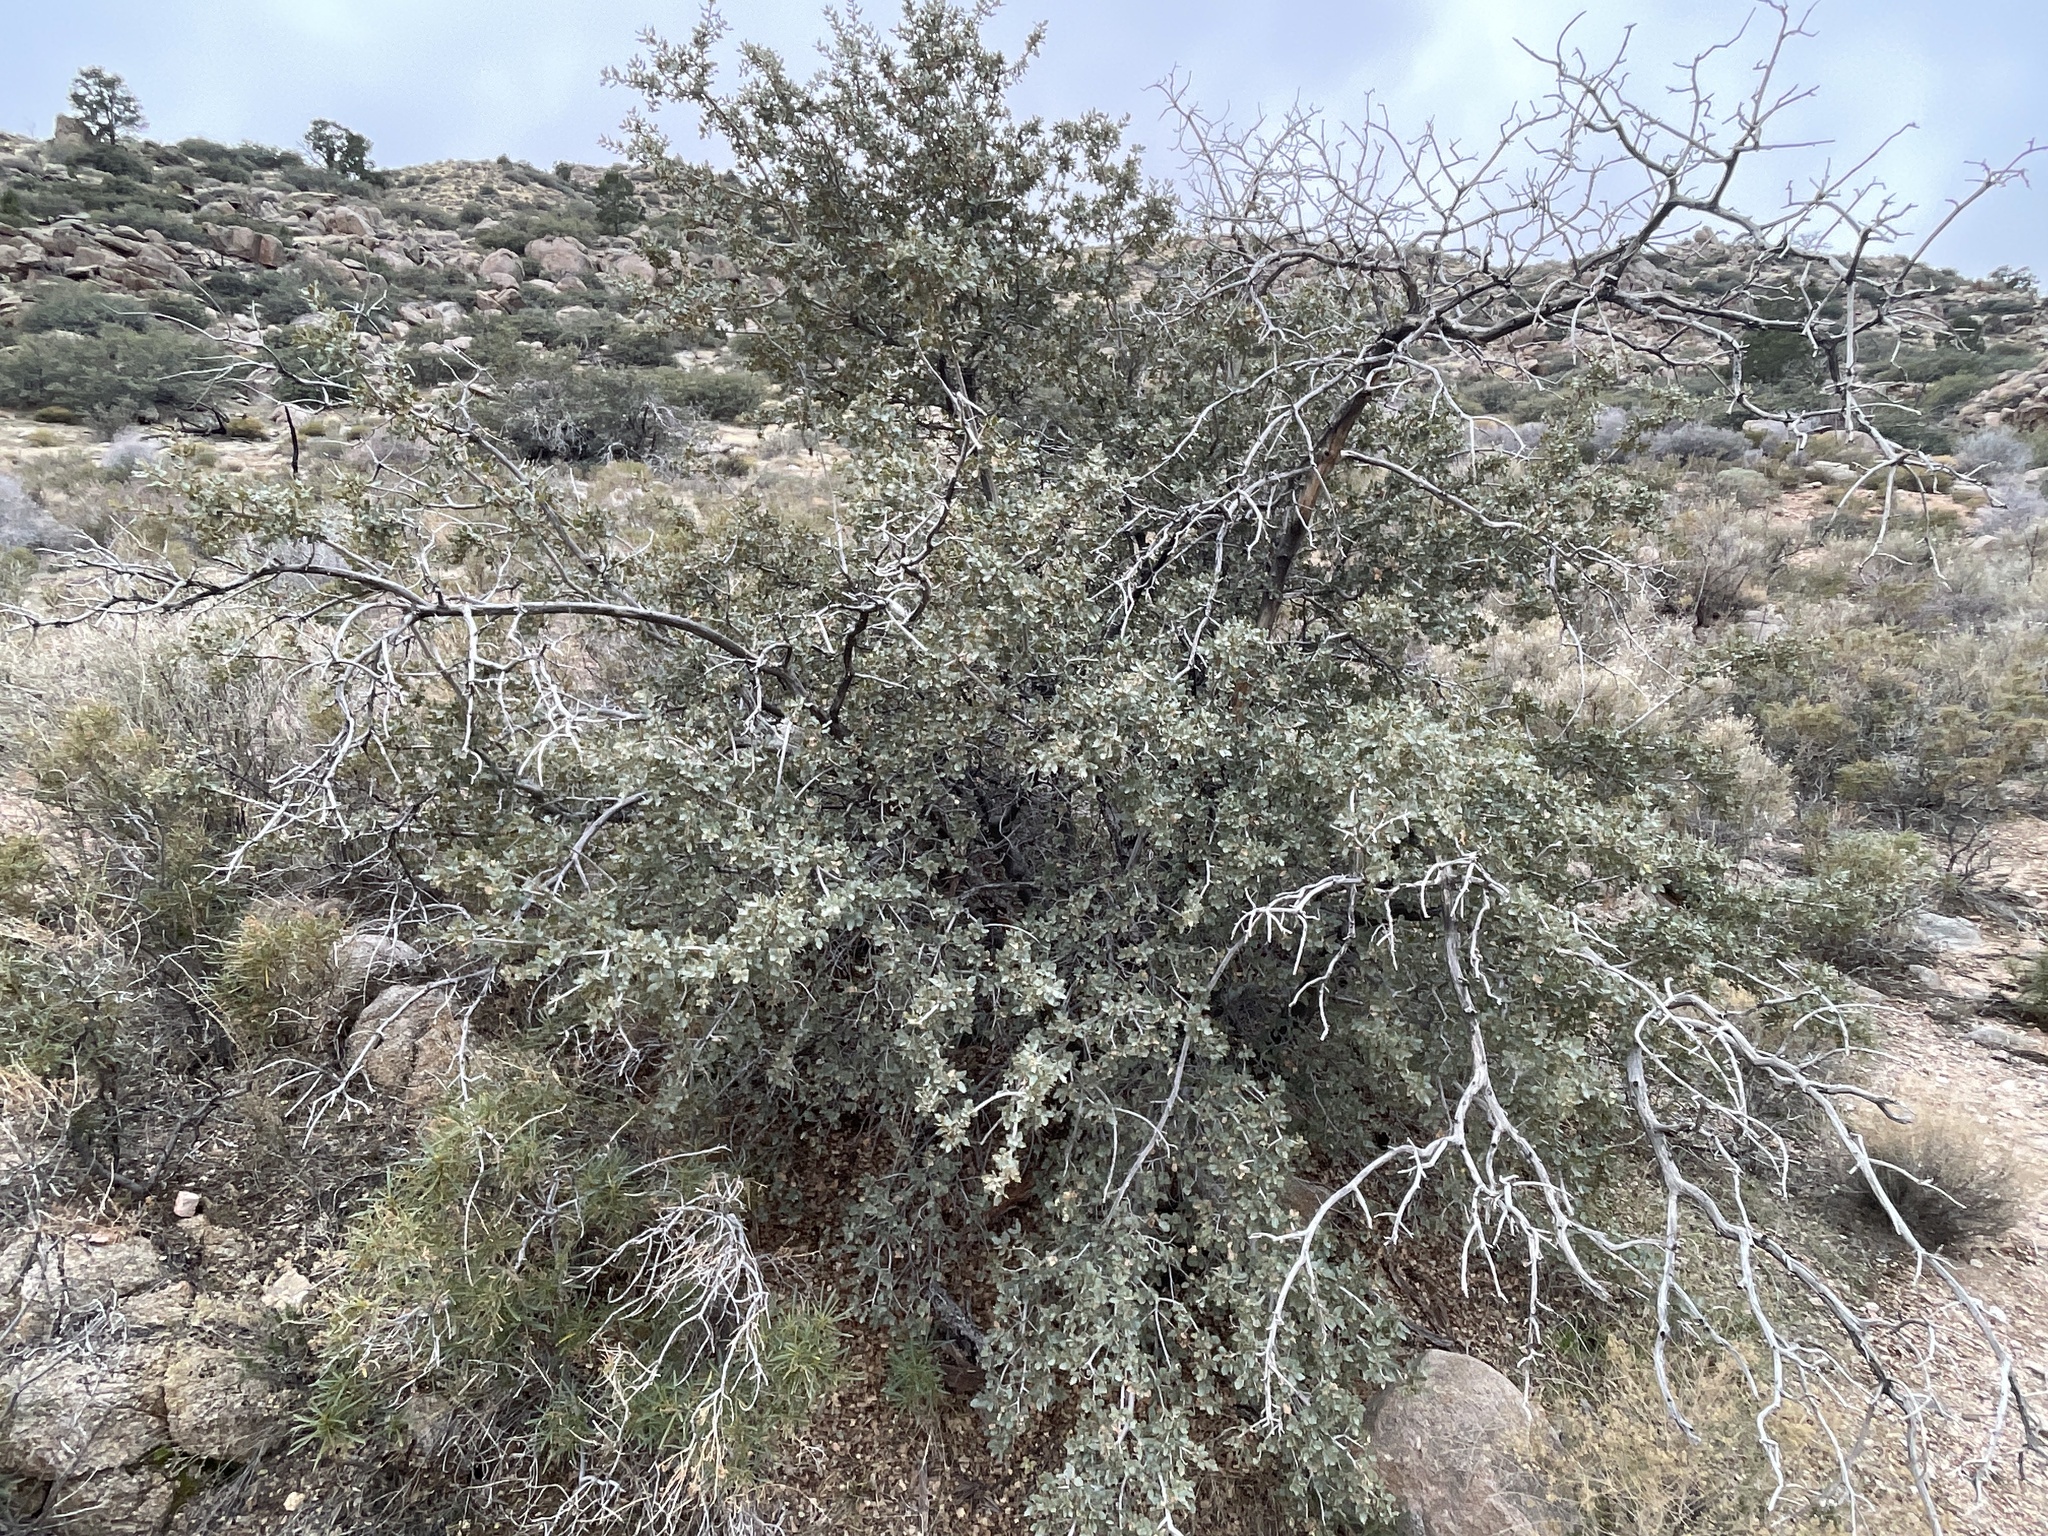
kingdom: Plantae
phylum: Tracheophyta
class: Magnoliopsida
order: Fagales
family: Fagaceae
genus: Quercus
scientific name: Quercus turbinella
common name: Sonoran scrub oak
